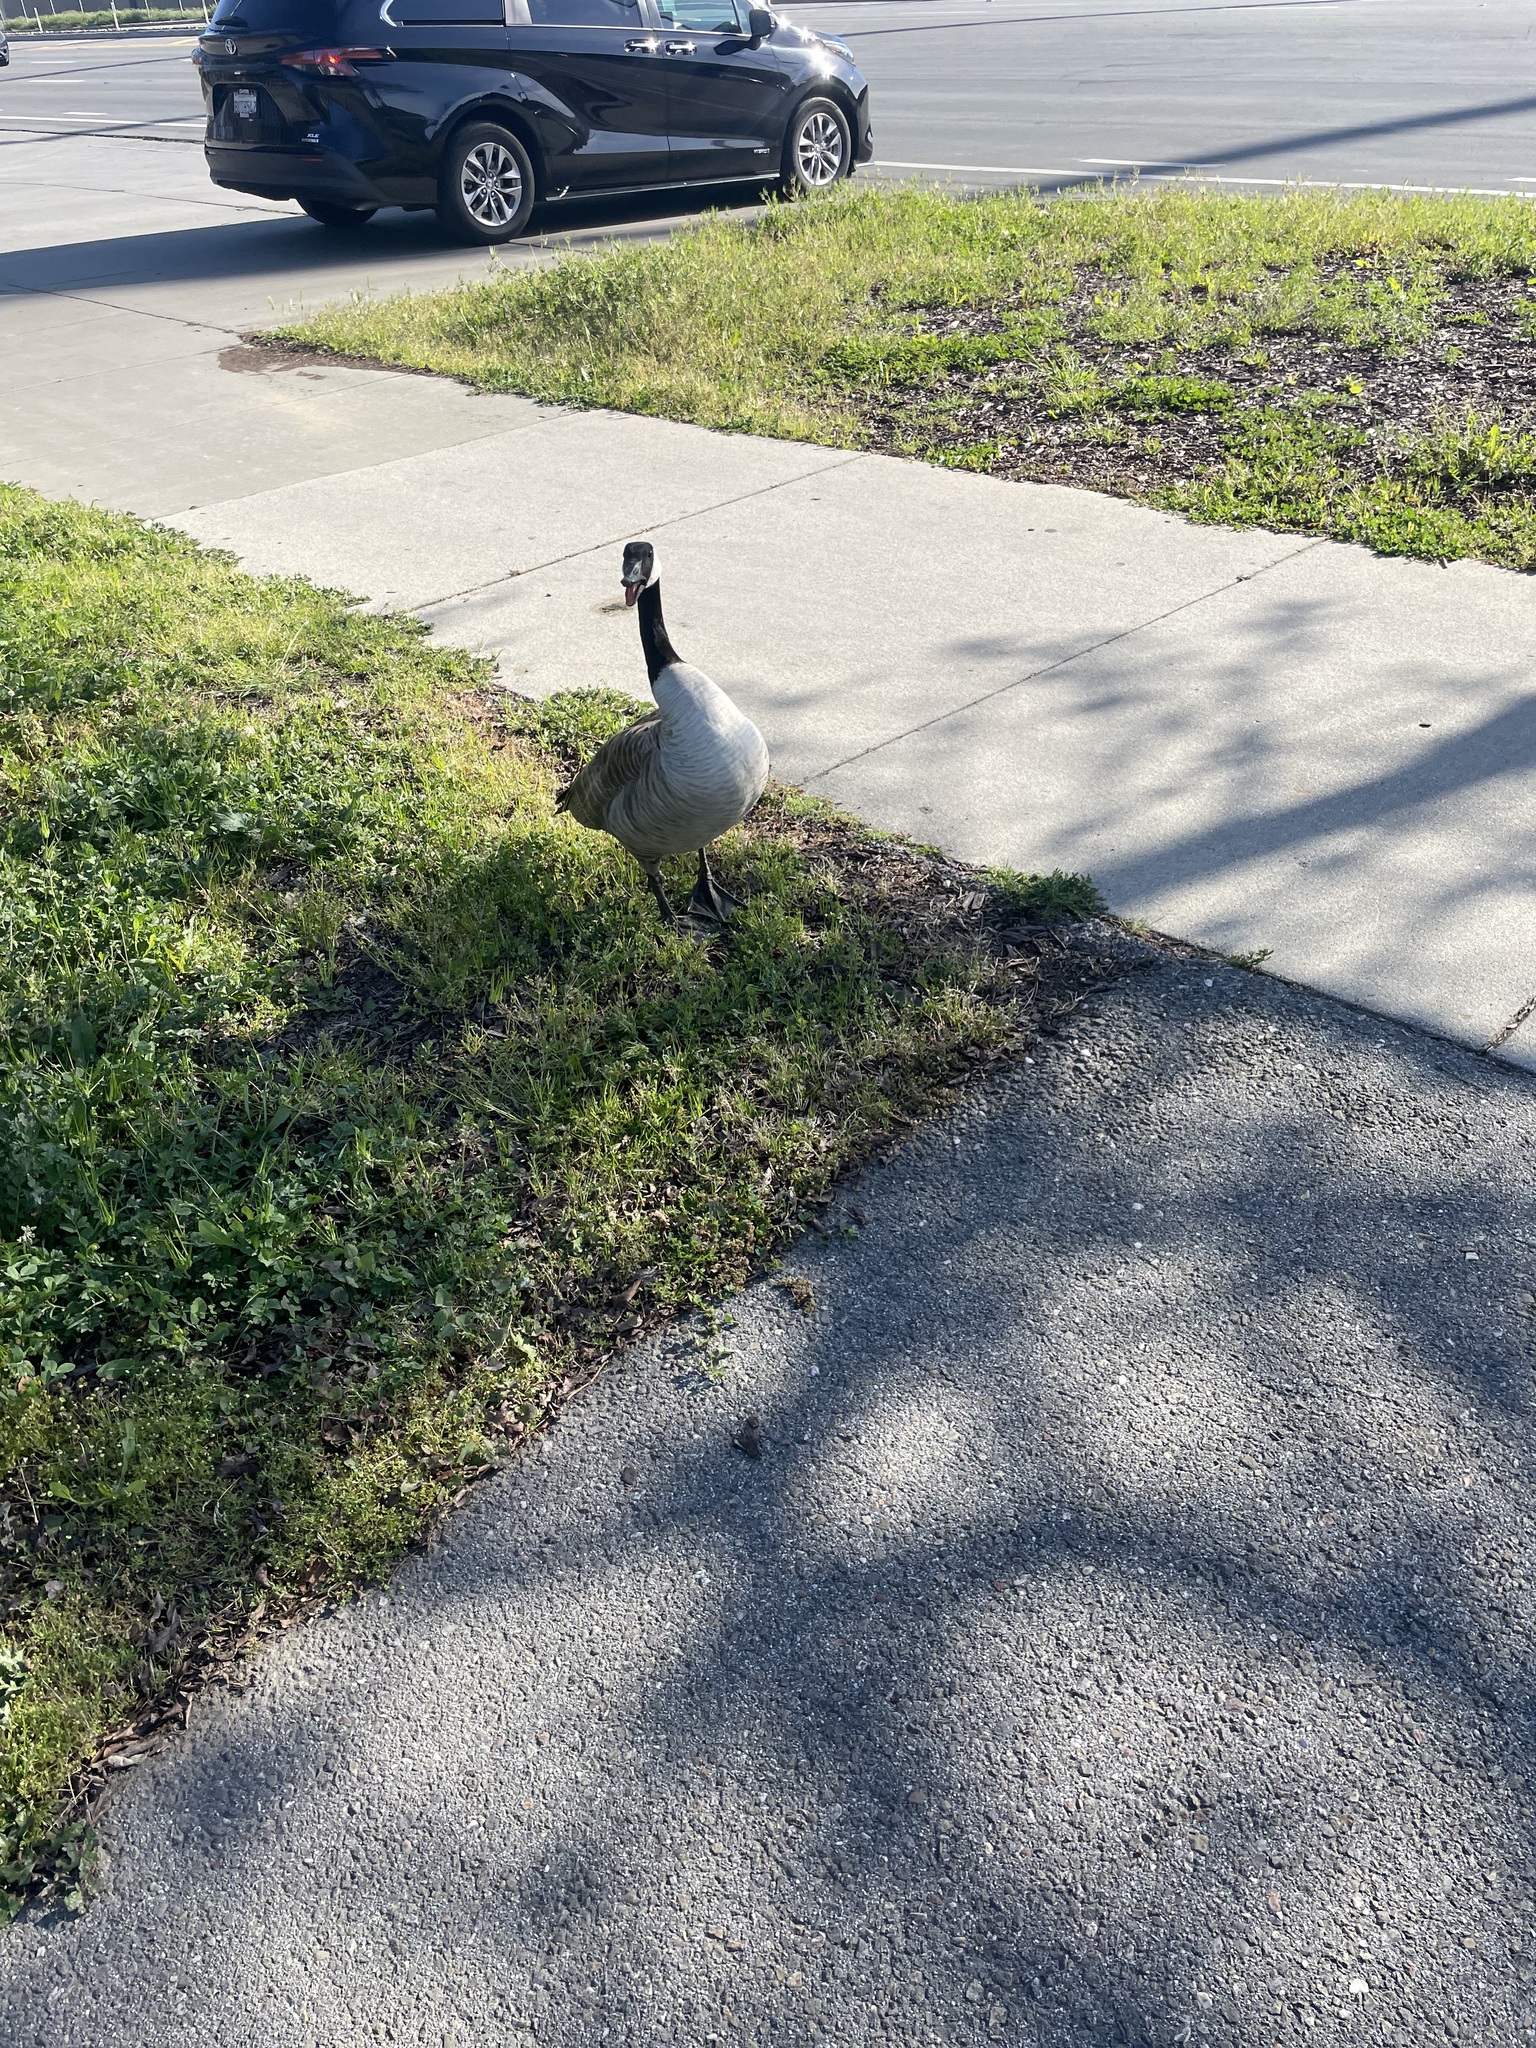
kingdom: Animalia
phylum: Chordata
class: Aves
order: Anseriformes
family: Anatidae
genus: Branta
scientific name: Branta canadensis
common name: Canada goose
